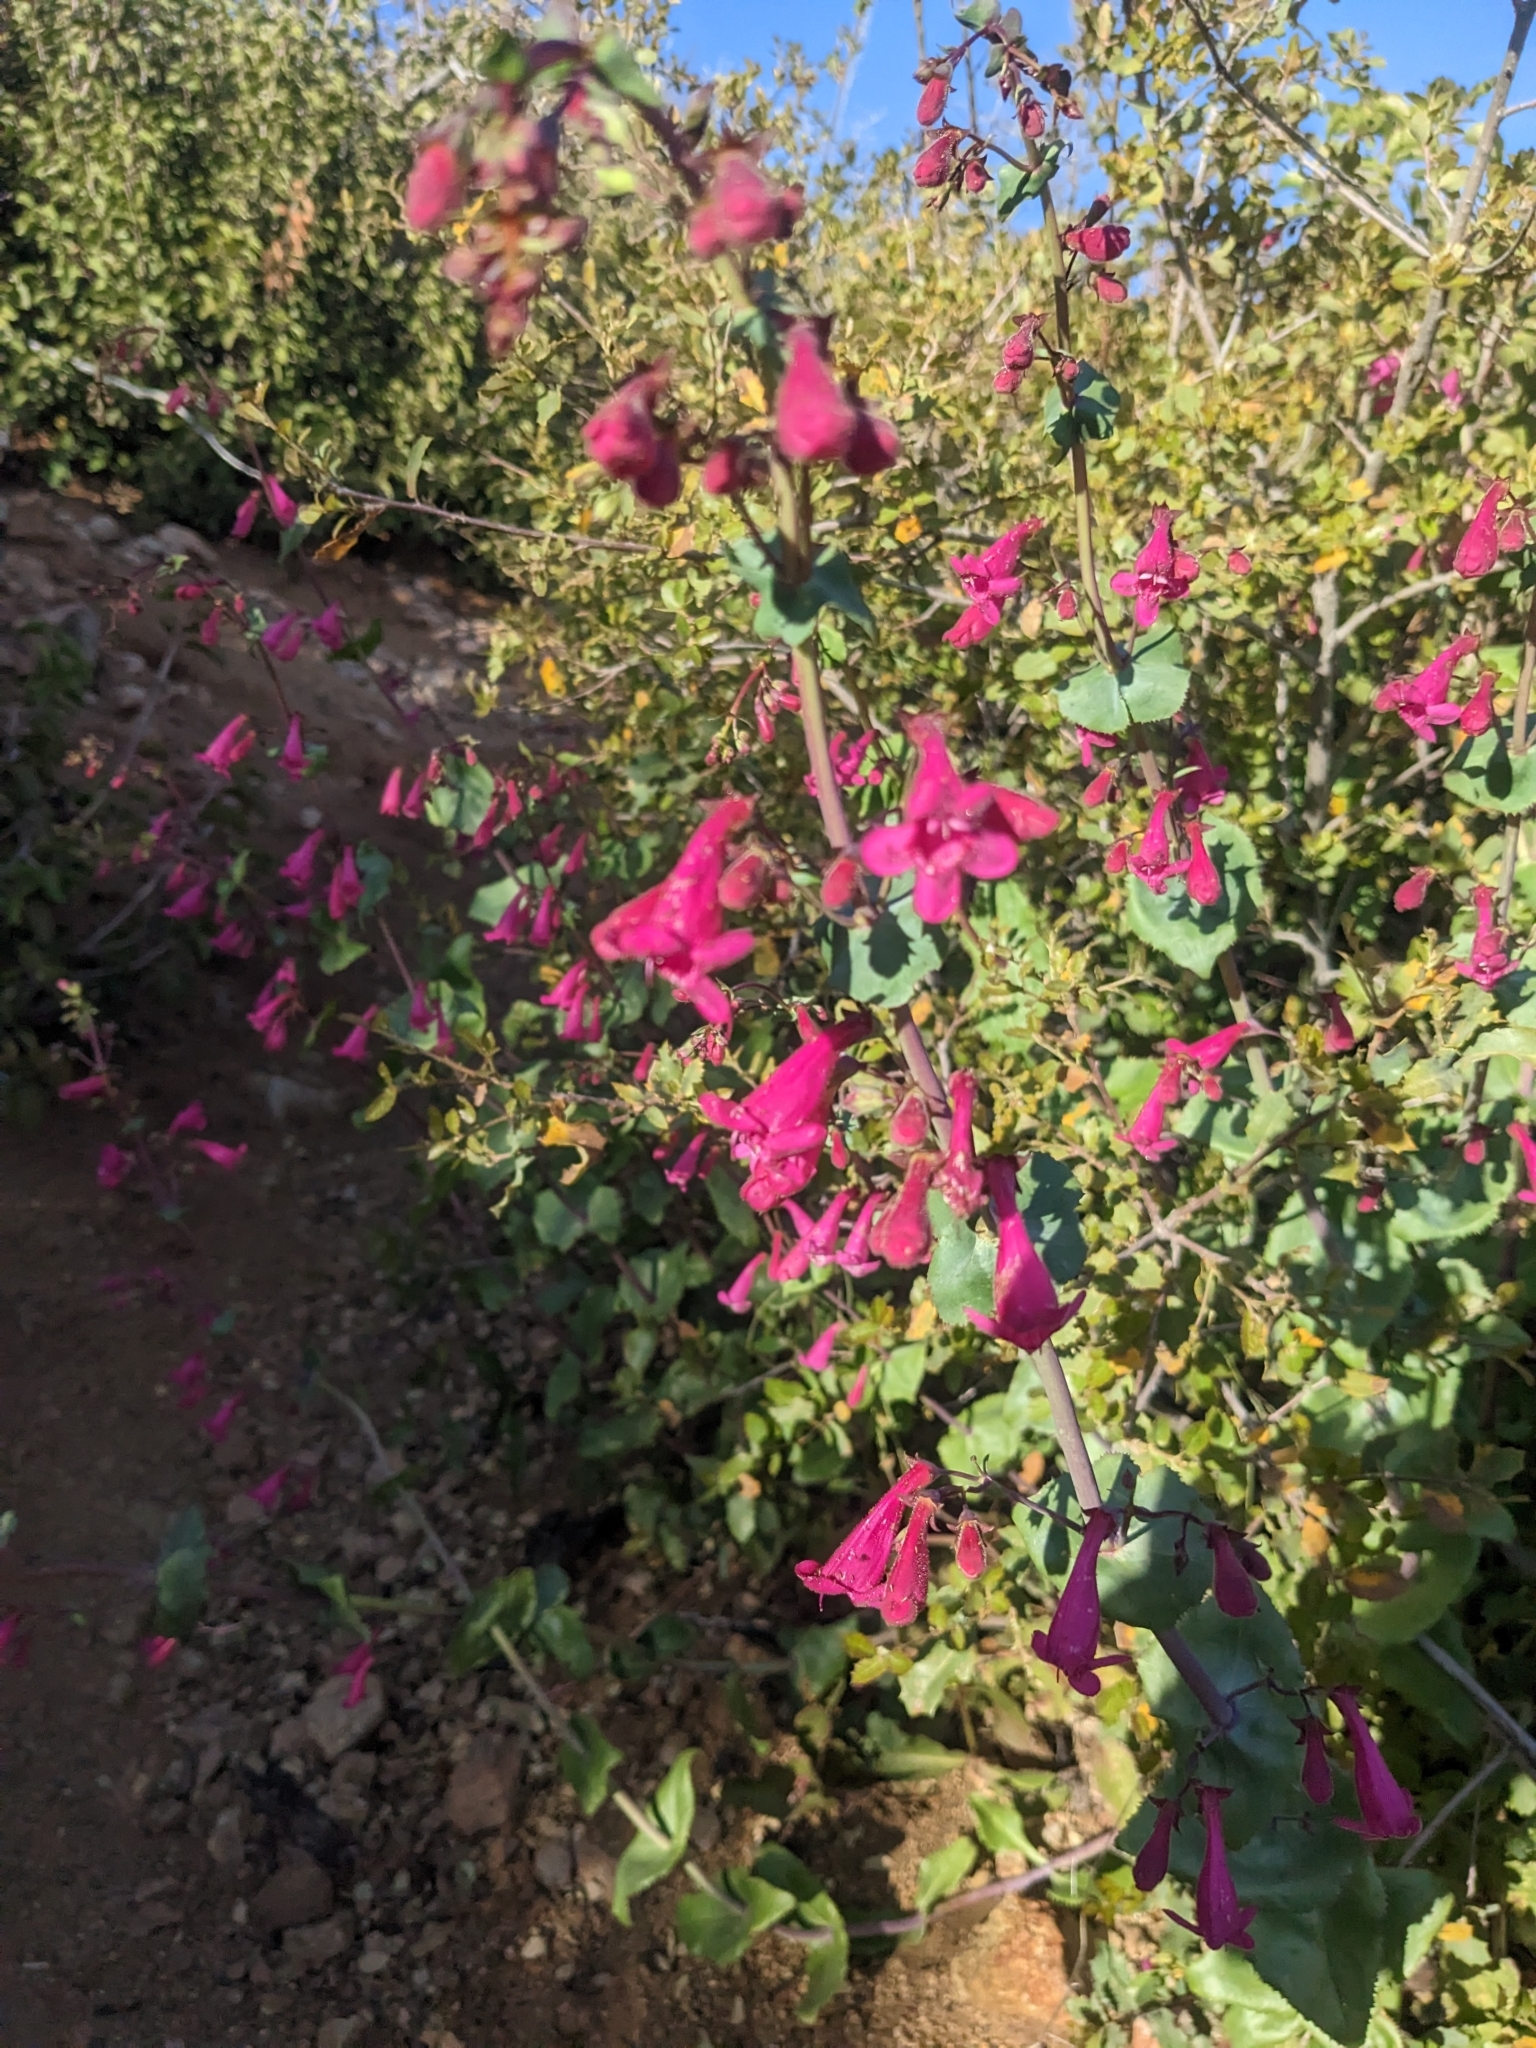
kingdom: Plantae
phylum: Tracheophyta
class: Magnoliopsida
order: Lamiales
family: Plantaginaceae
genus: Penstemon
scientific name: Penstemon pseudospectabilis
